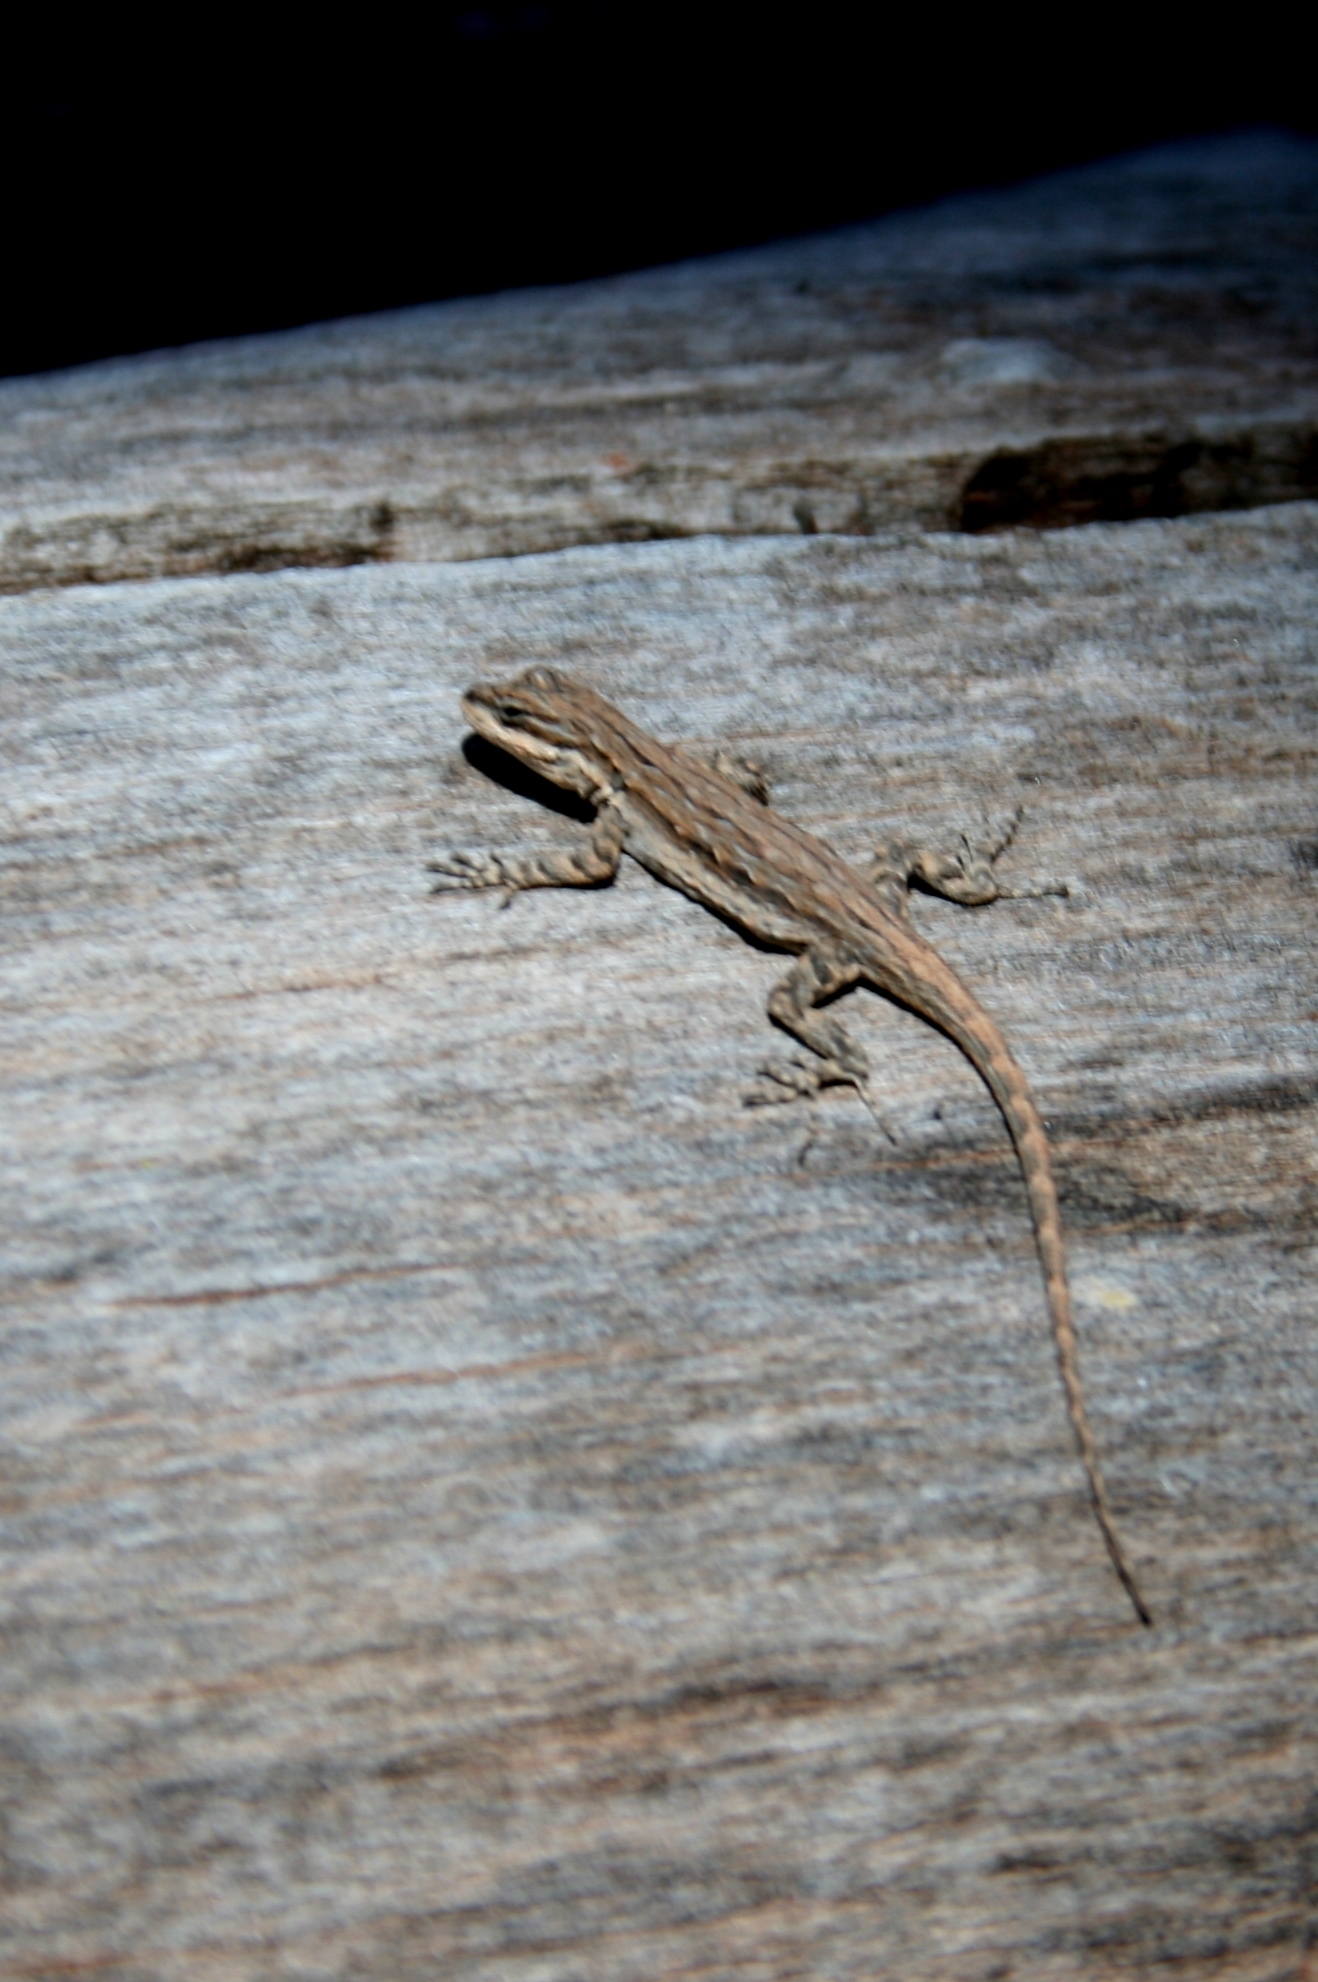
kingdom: Animalia
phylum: Chordata
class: Squamata
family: Phrynosomatidae
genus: Urosaurus
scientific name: Urosaurus ornatus
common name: Ornate tree lizard
